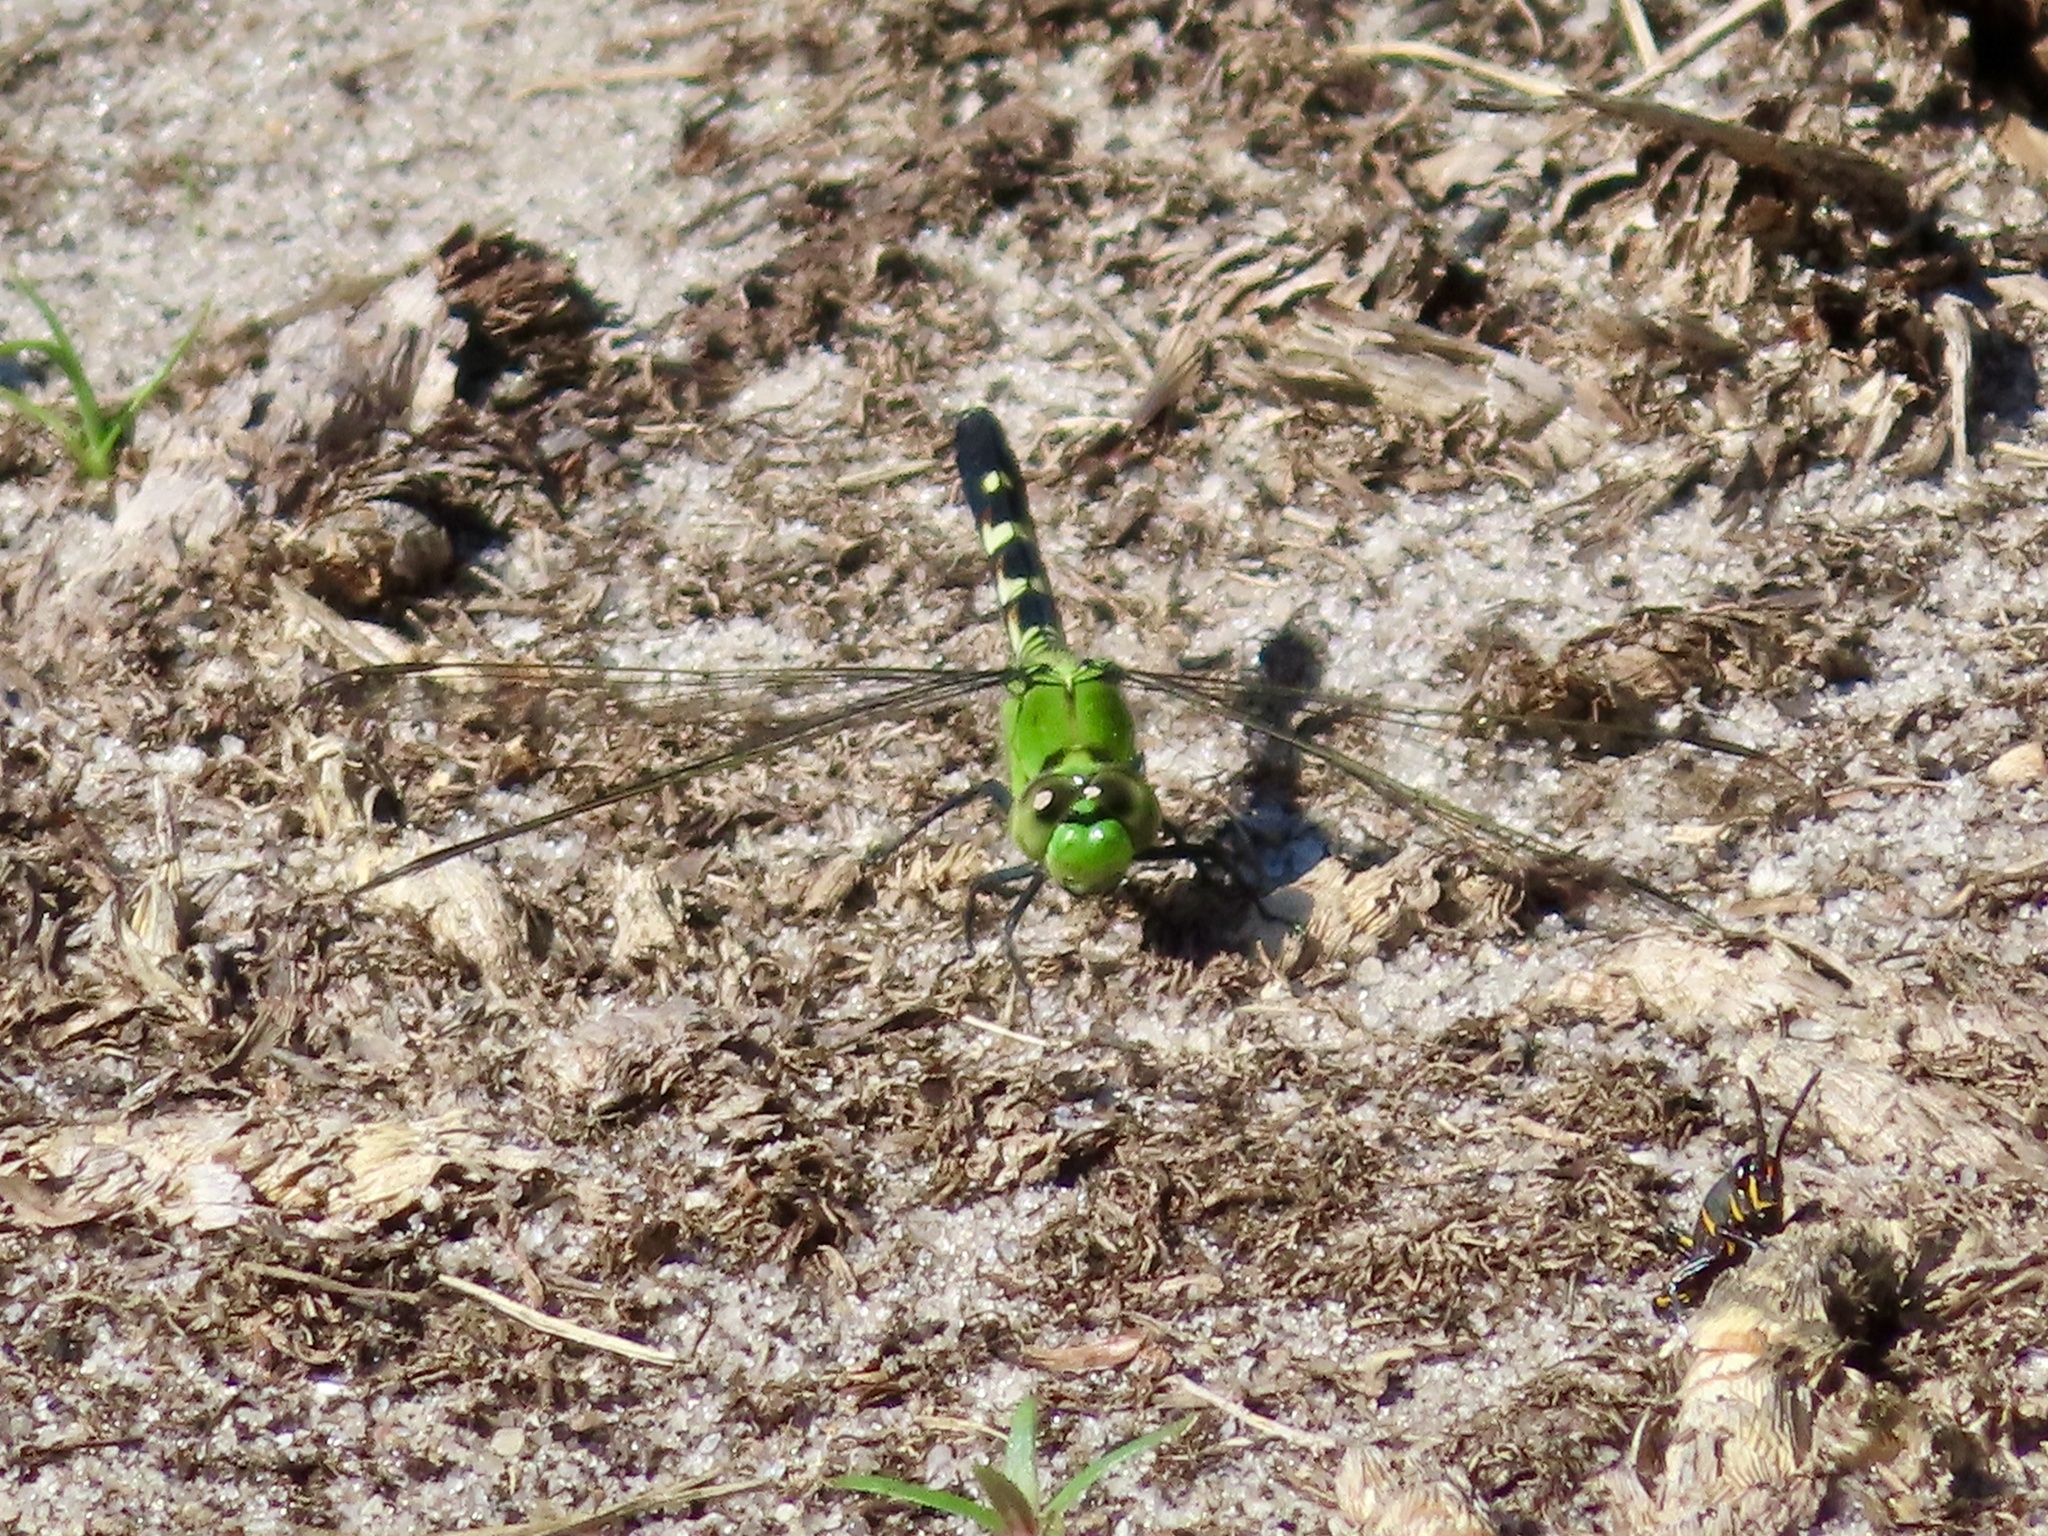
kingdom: Animalia
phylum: Arthropoda
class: Insecta
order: Odonata
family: Libellulidae
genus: Erythemis
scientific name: Erythemis simplicicollis
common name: Eastern pondhawk
